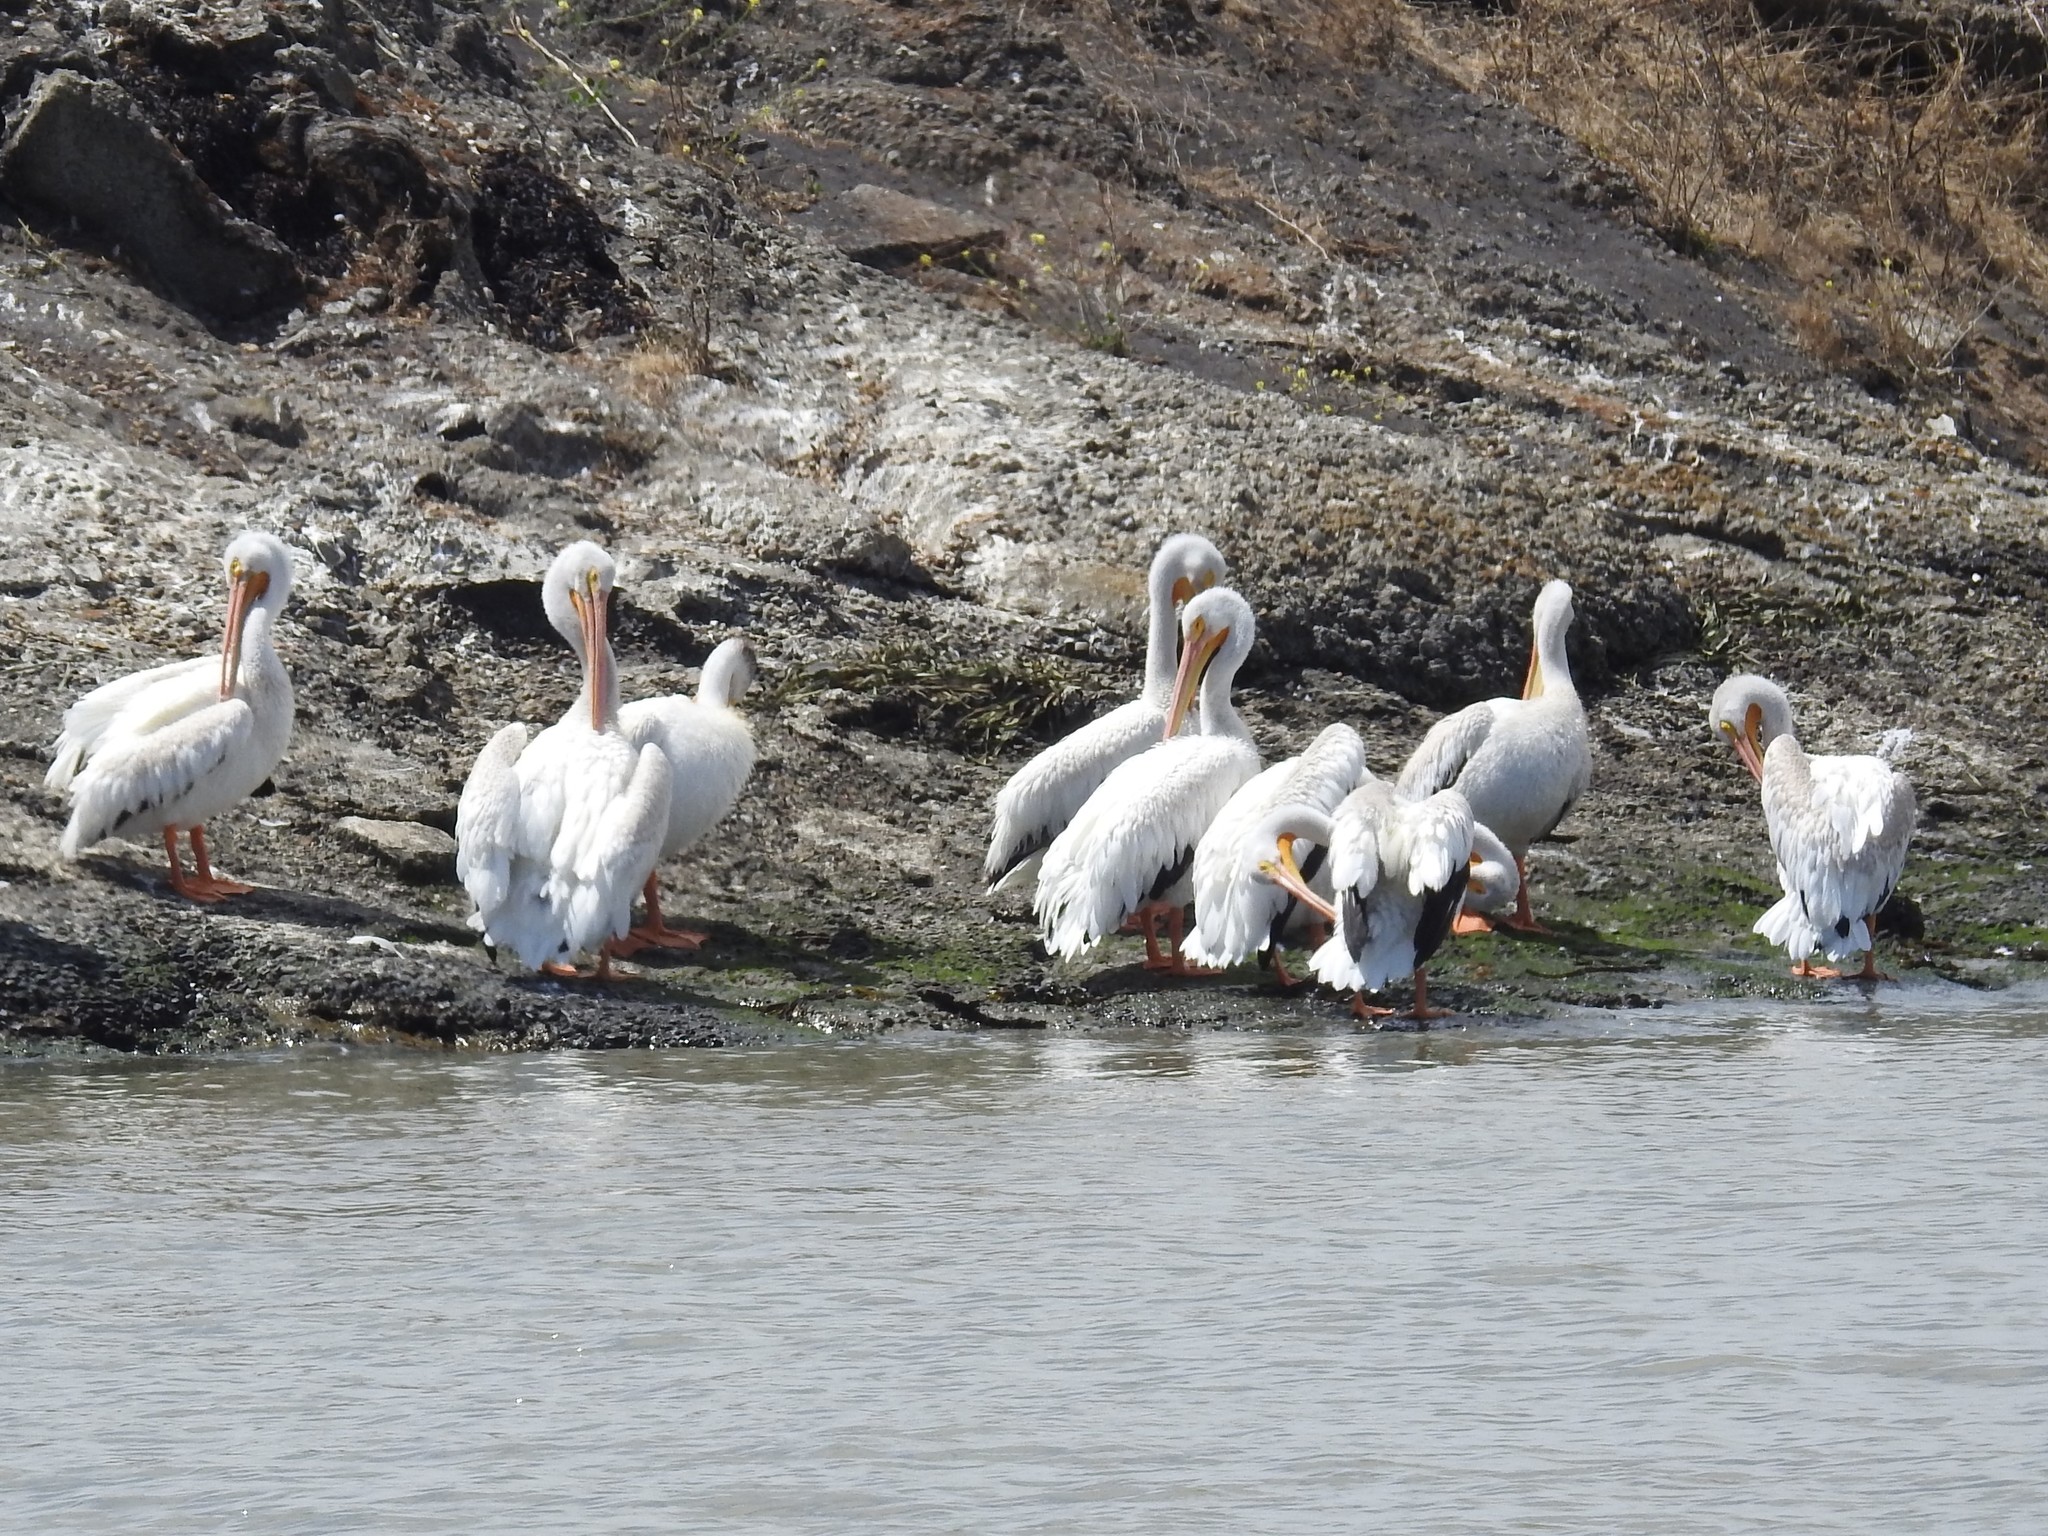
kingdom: Animalia
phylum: Chordata
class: Aves
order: Pelecaniformes
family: Pelecanidae
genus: Pelecanus
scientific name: Pelecanus erythrorhynchos
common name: American white pelican
